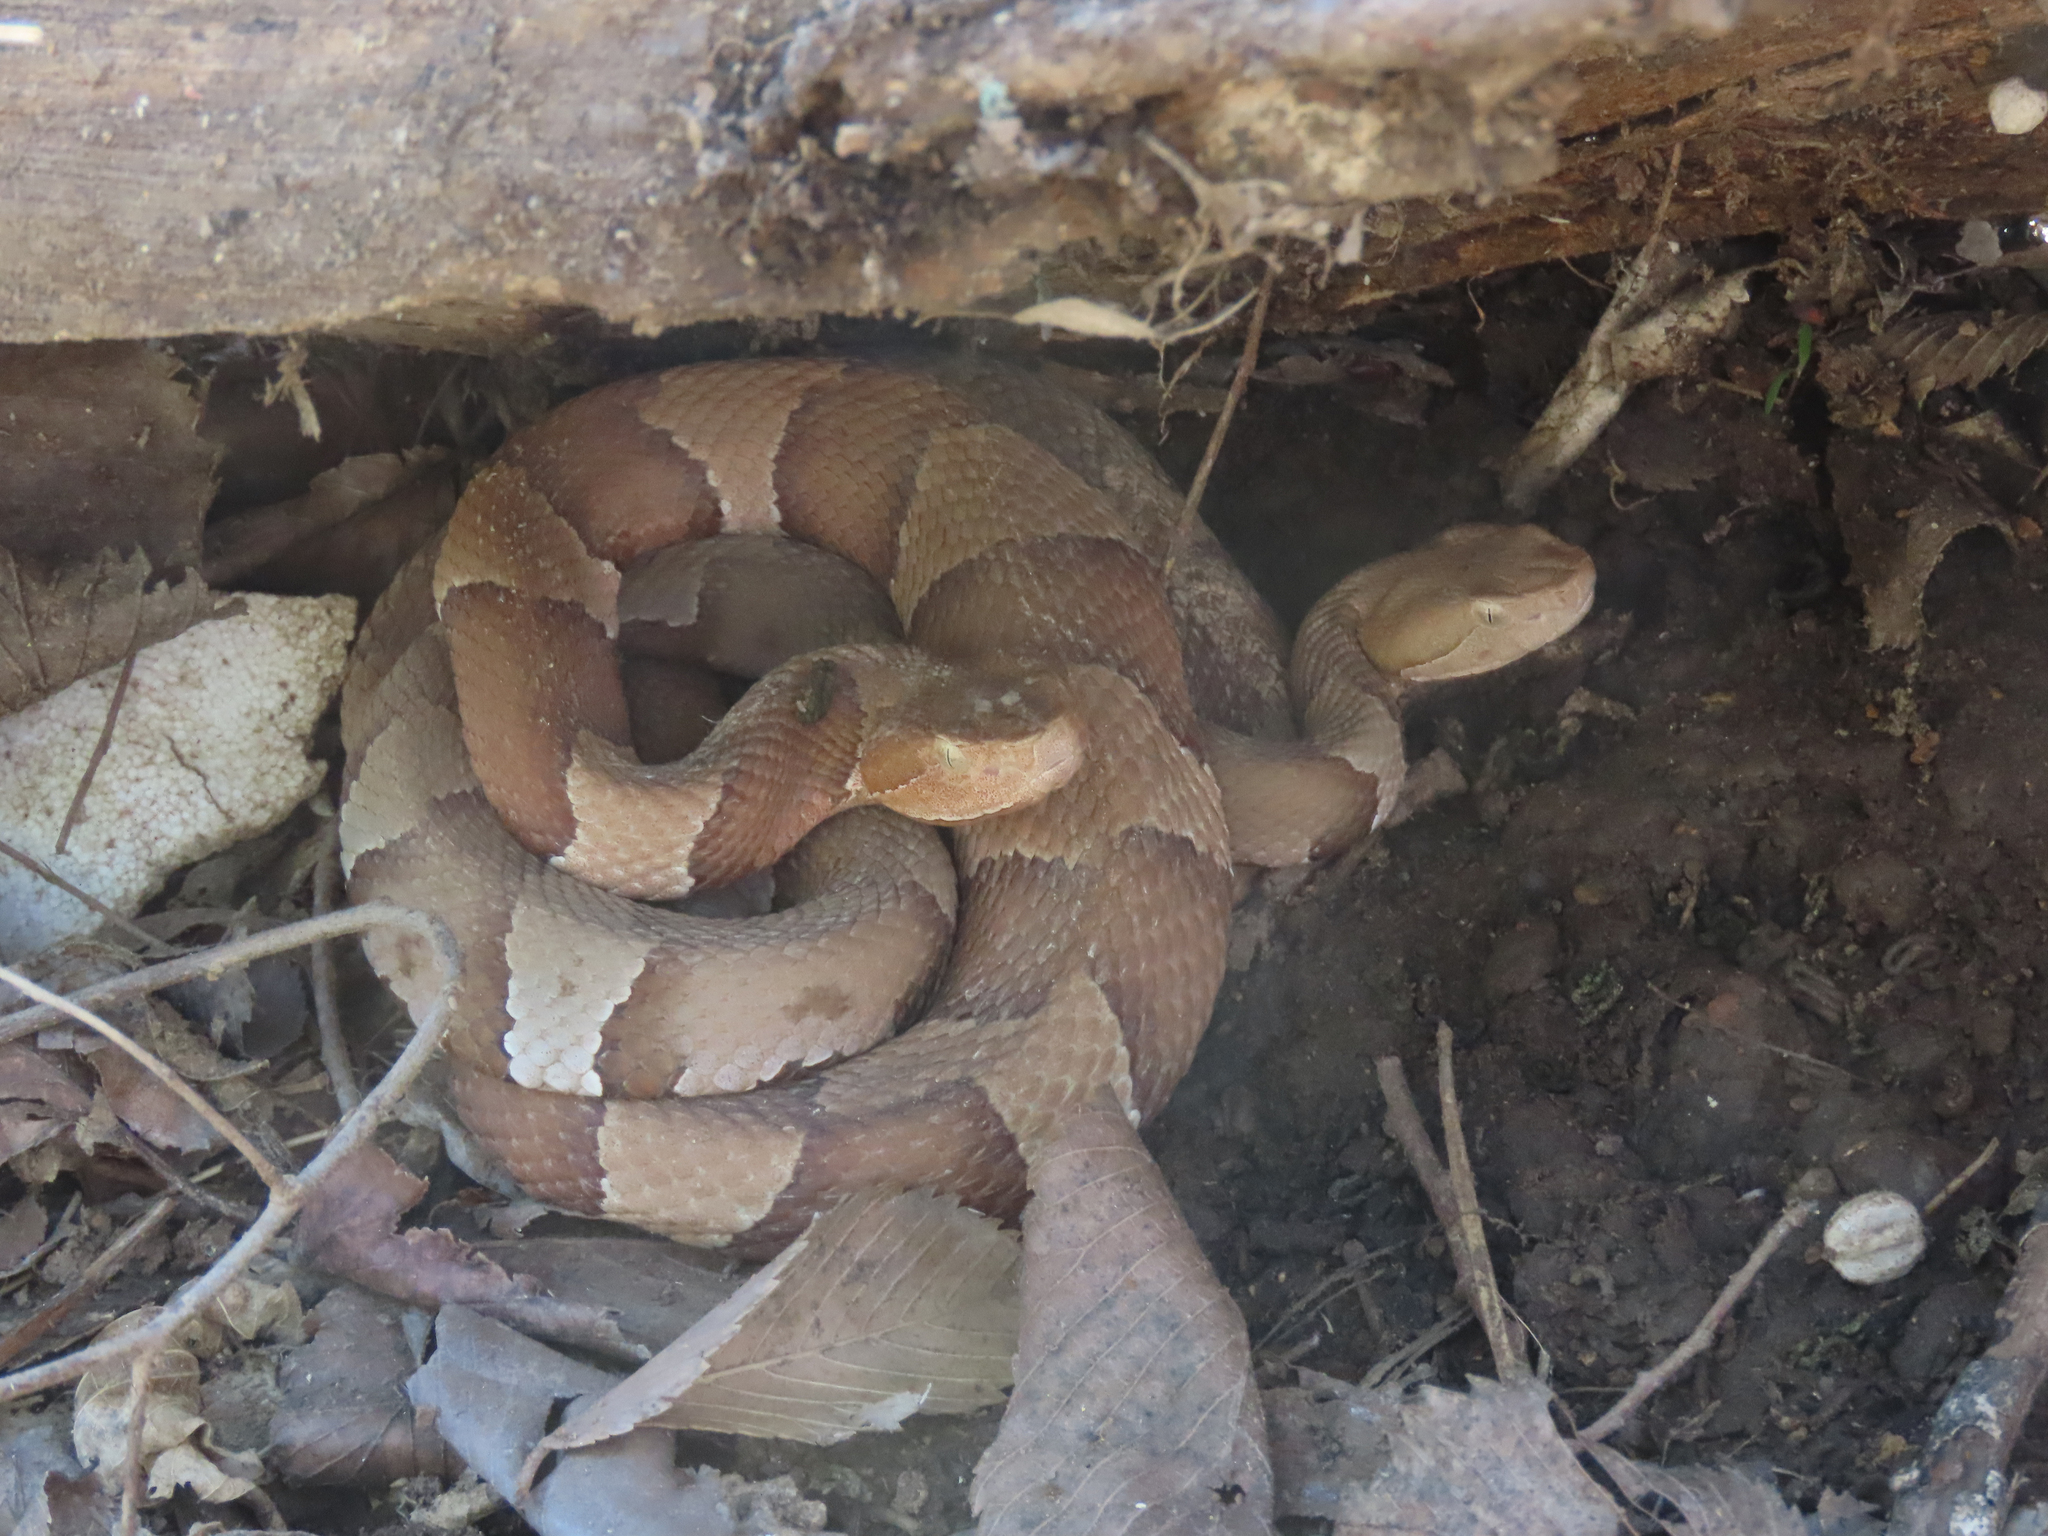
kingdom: Animalia
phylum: Chordata
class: Squamata
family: Viperidae
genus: Agkistrodon
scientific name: Agkistrodon laticinctus
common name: Broad-banded copperhead
